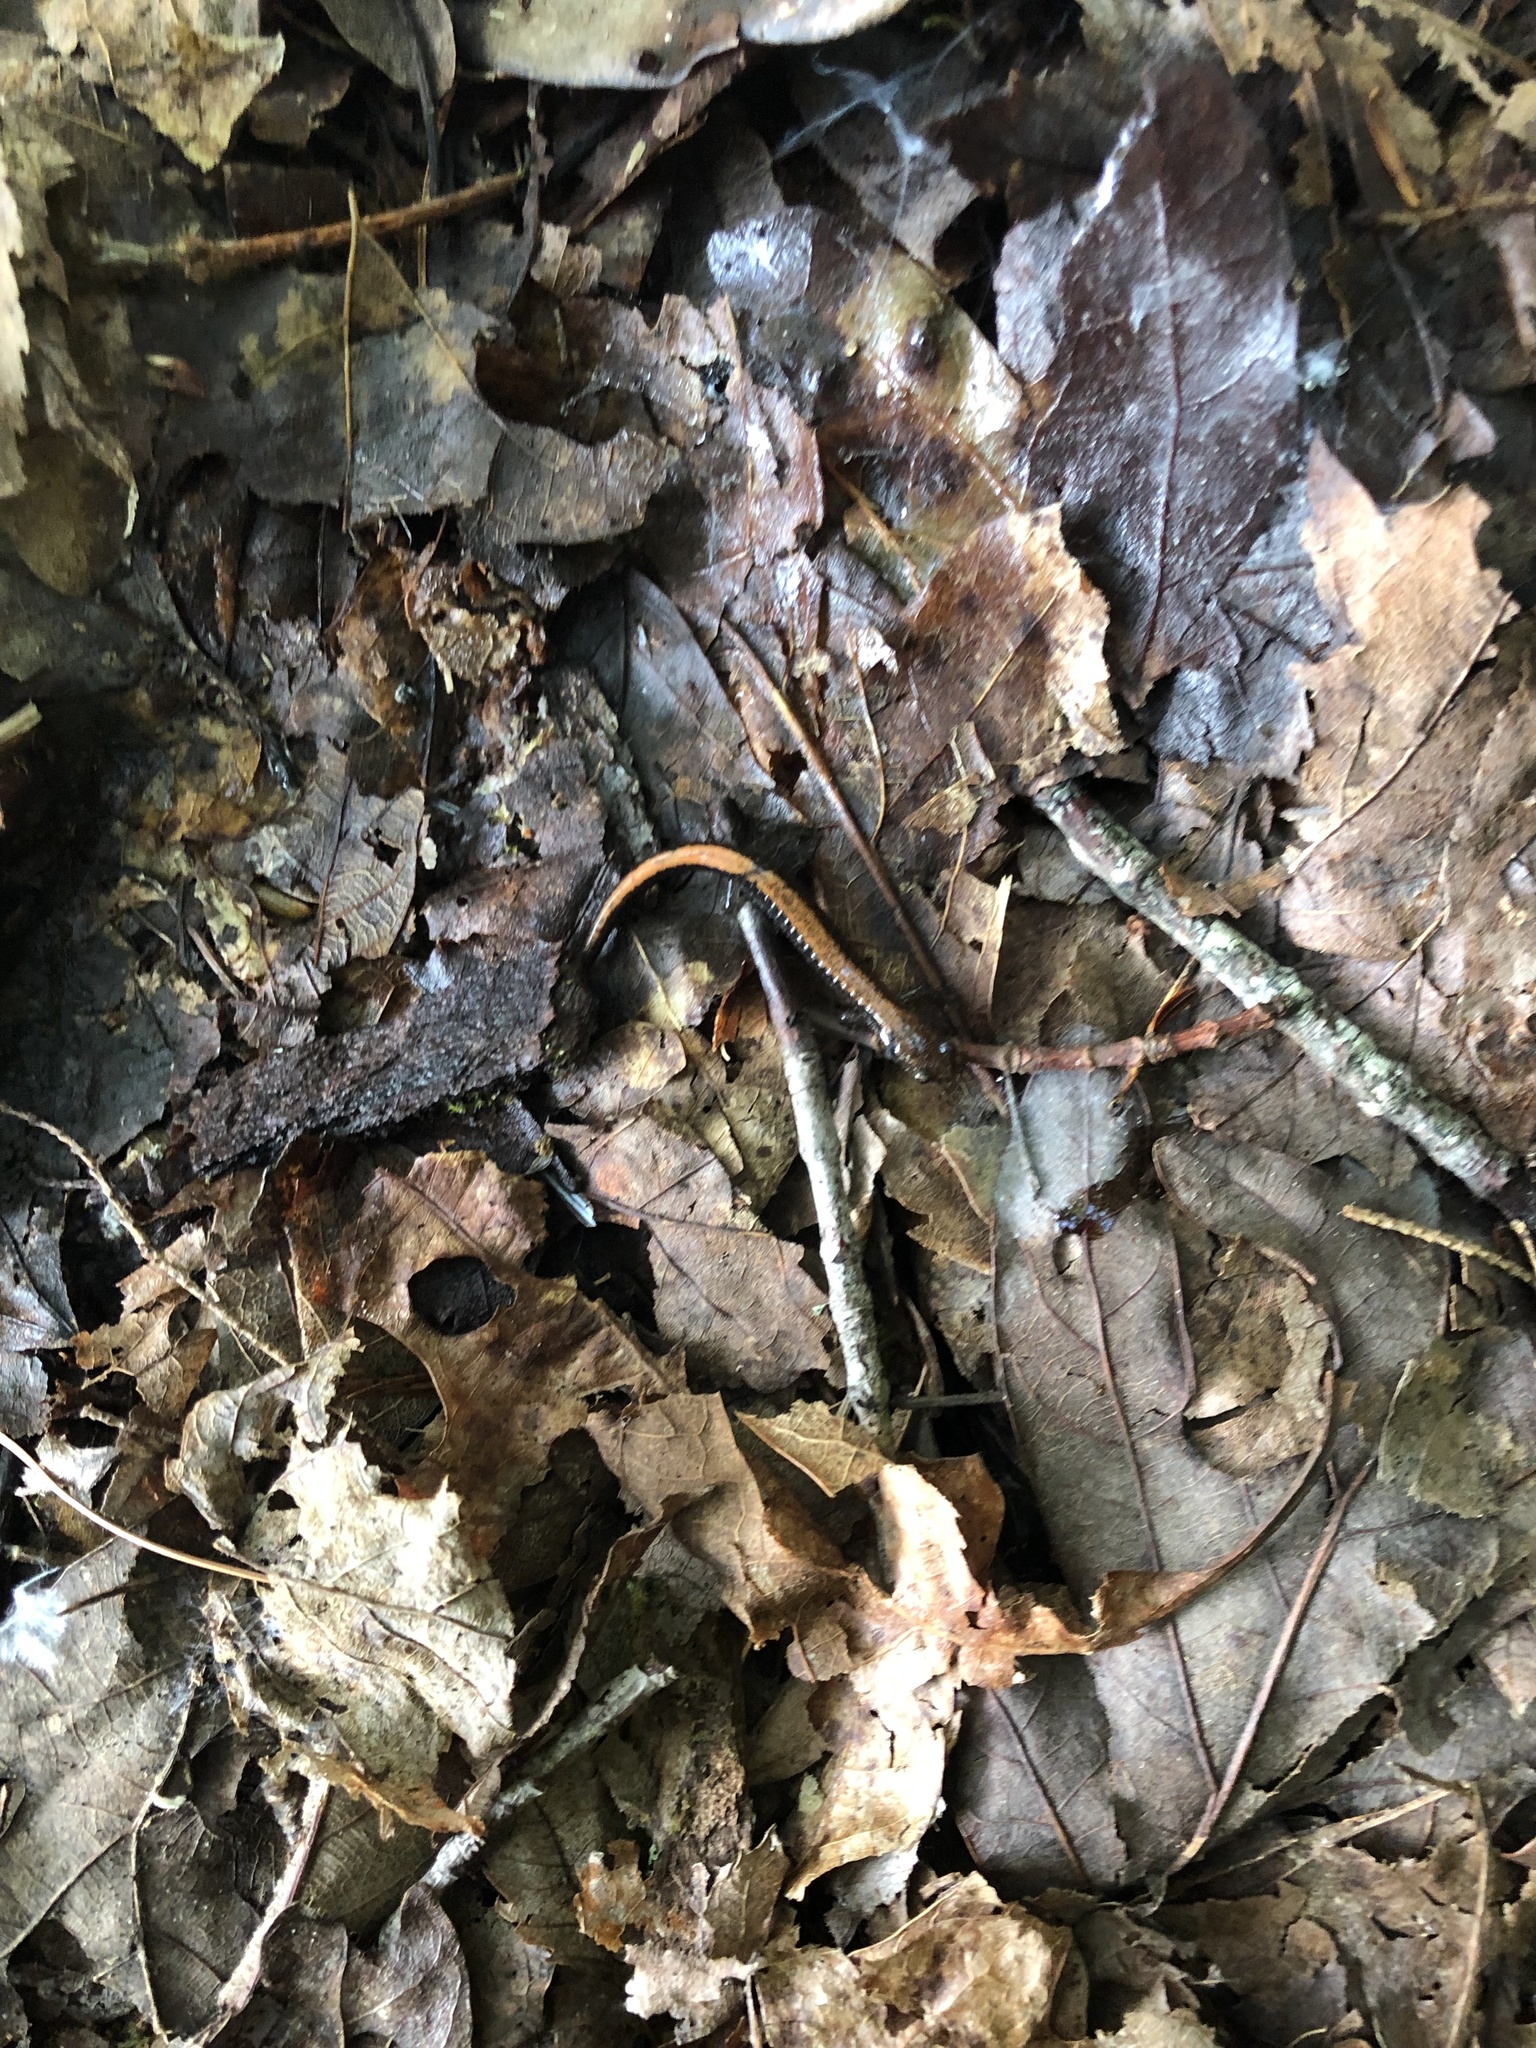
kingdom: Animalia
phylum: Chordata
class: Amphibia
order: Caudata
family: Plethodontidae
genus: Plethodon
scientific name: Plethodon cinereus
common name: Redback salamander
